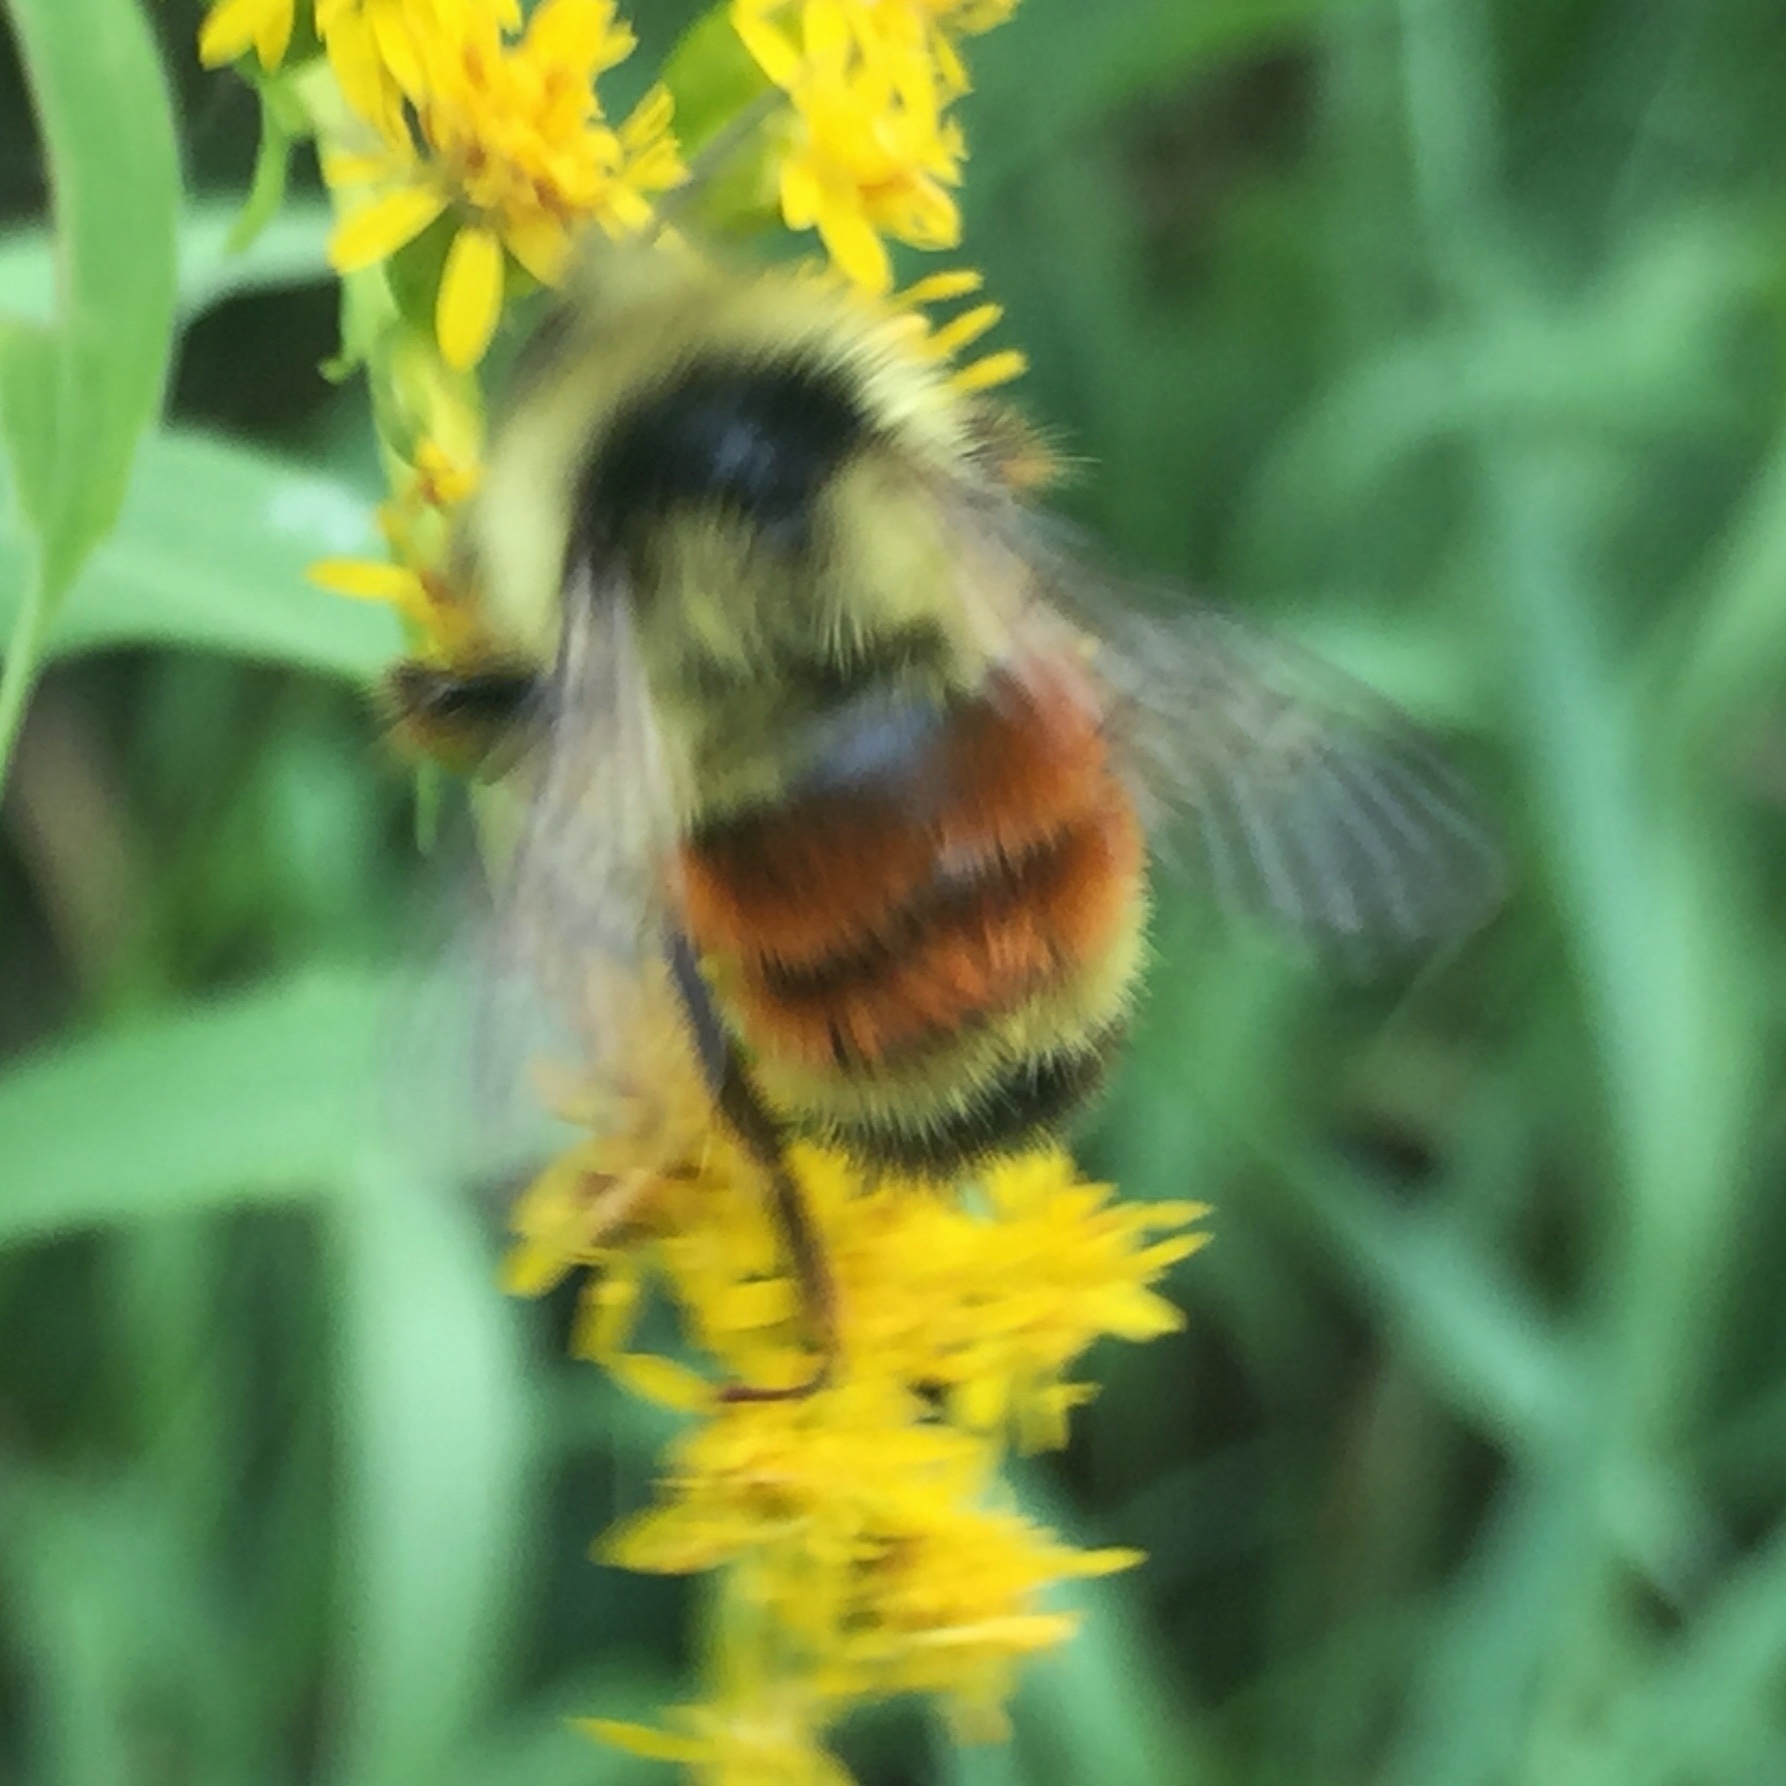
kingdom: Animalia
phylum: Arthropoda
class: Insecta
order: Hymenoptera
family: Apidae
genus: Bombus
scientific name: Bombus ternarius
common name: Tri-colored bumble bee
